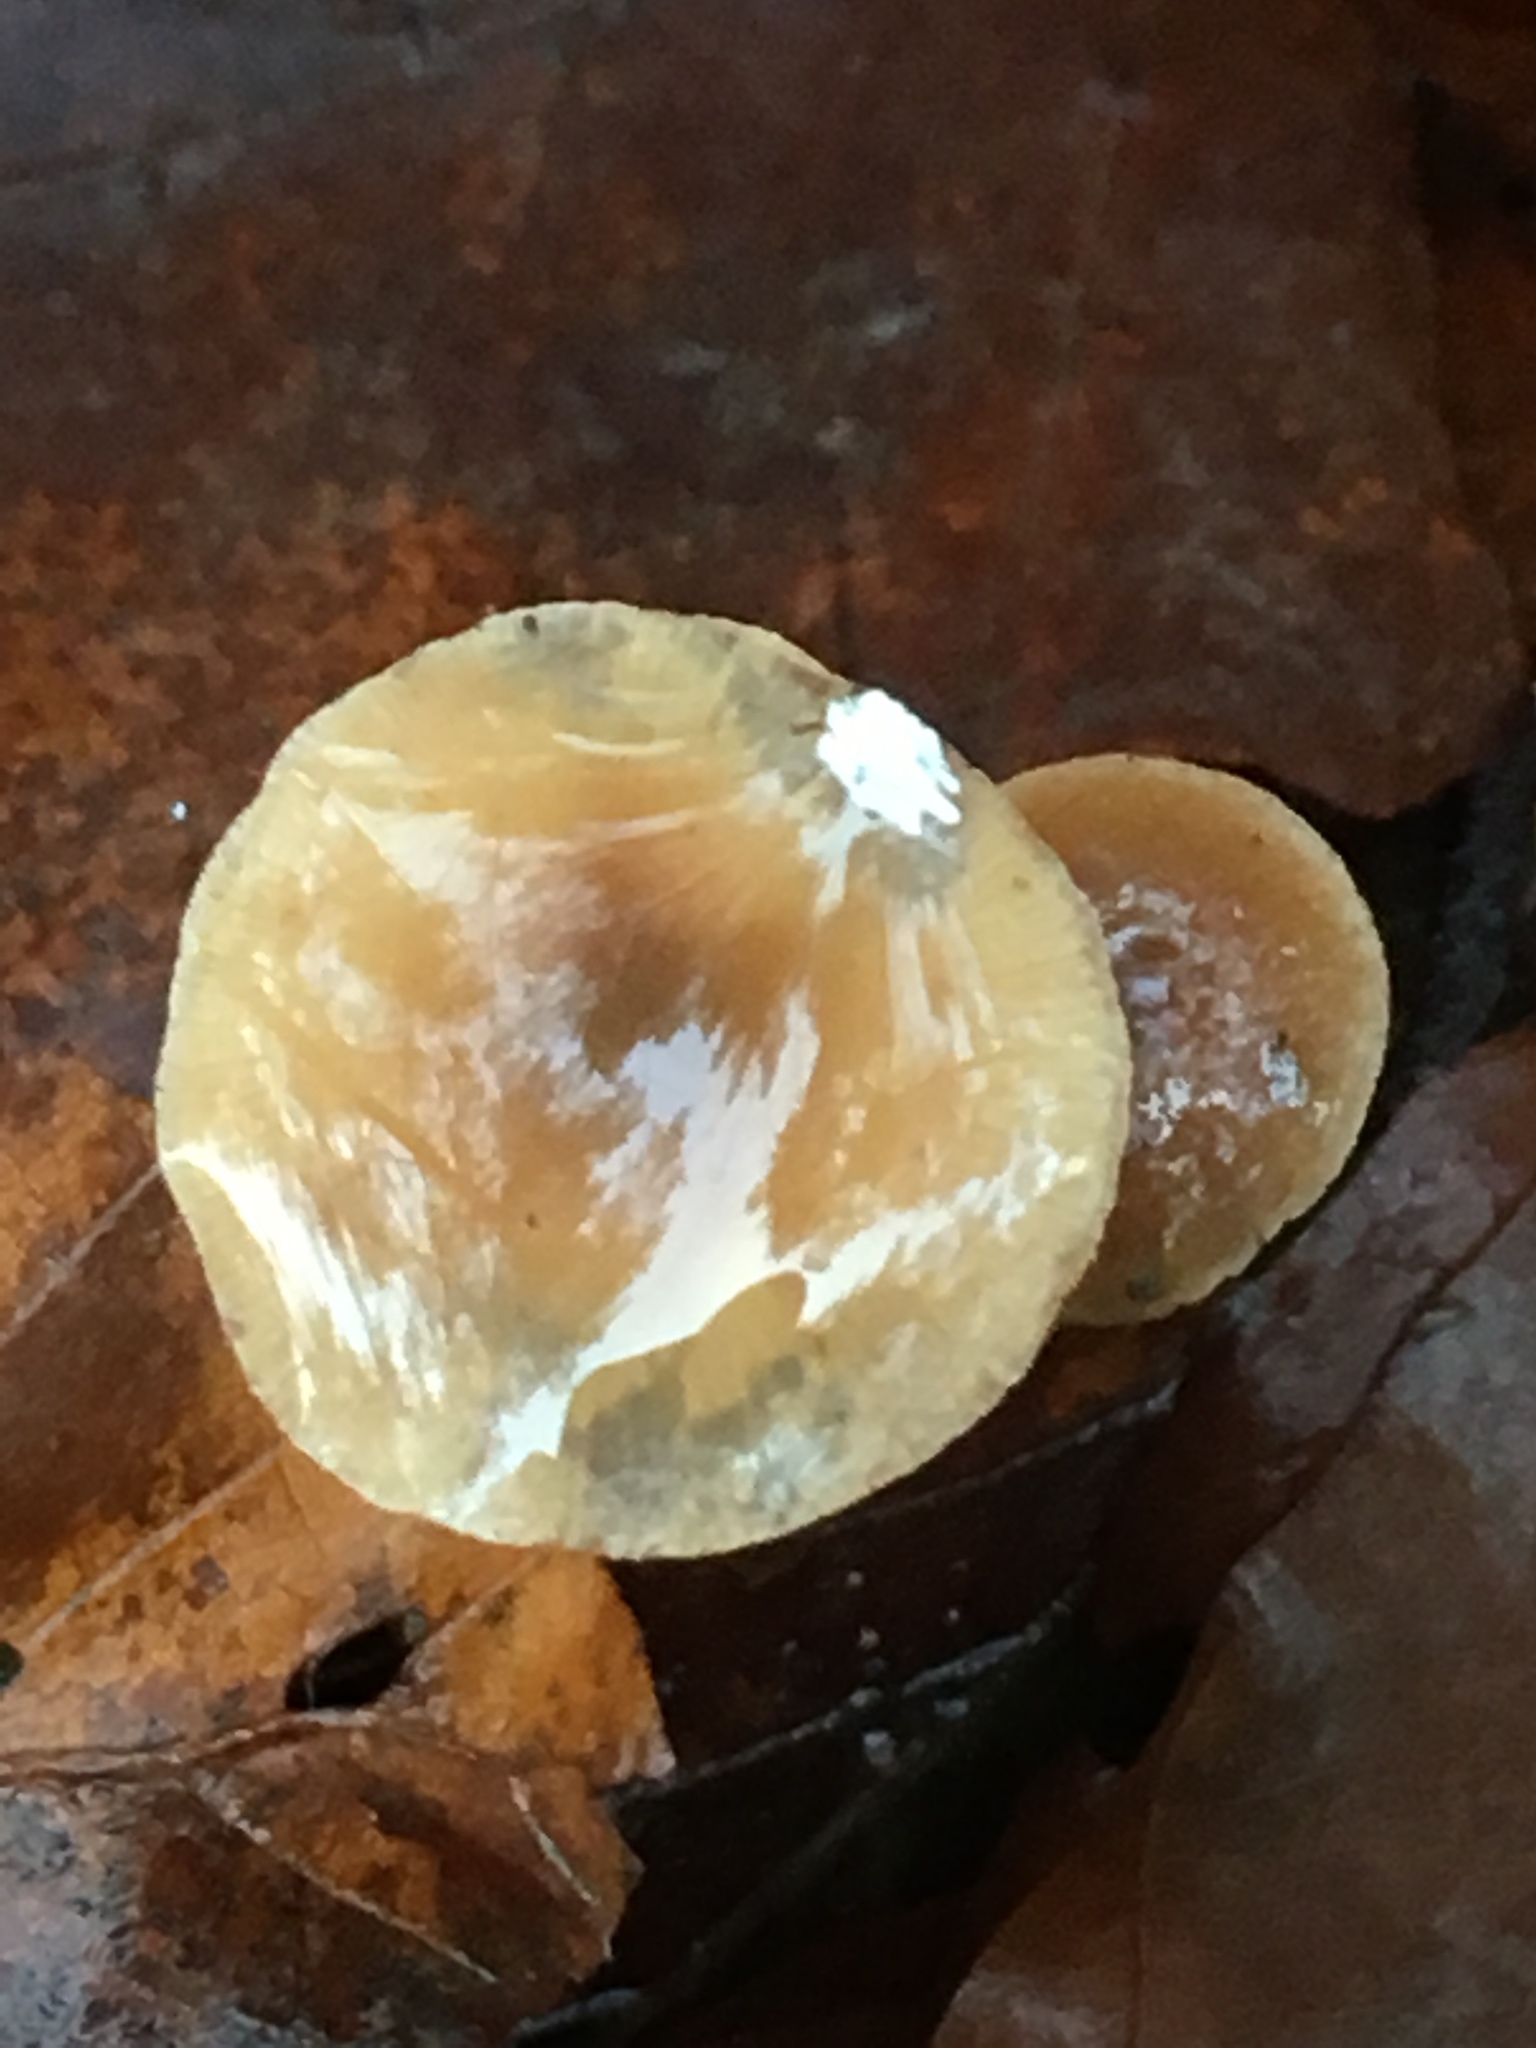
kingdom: Fungi
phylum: Basidiomycota
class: Agaricomycetes
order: Agaricales
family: Marasmiaceae
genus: Baeospora
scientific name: Baeospora myosura
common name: Conifercone cap
